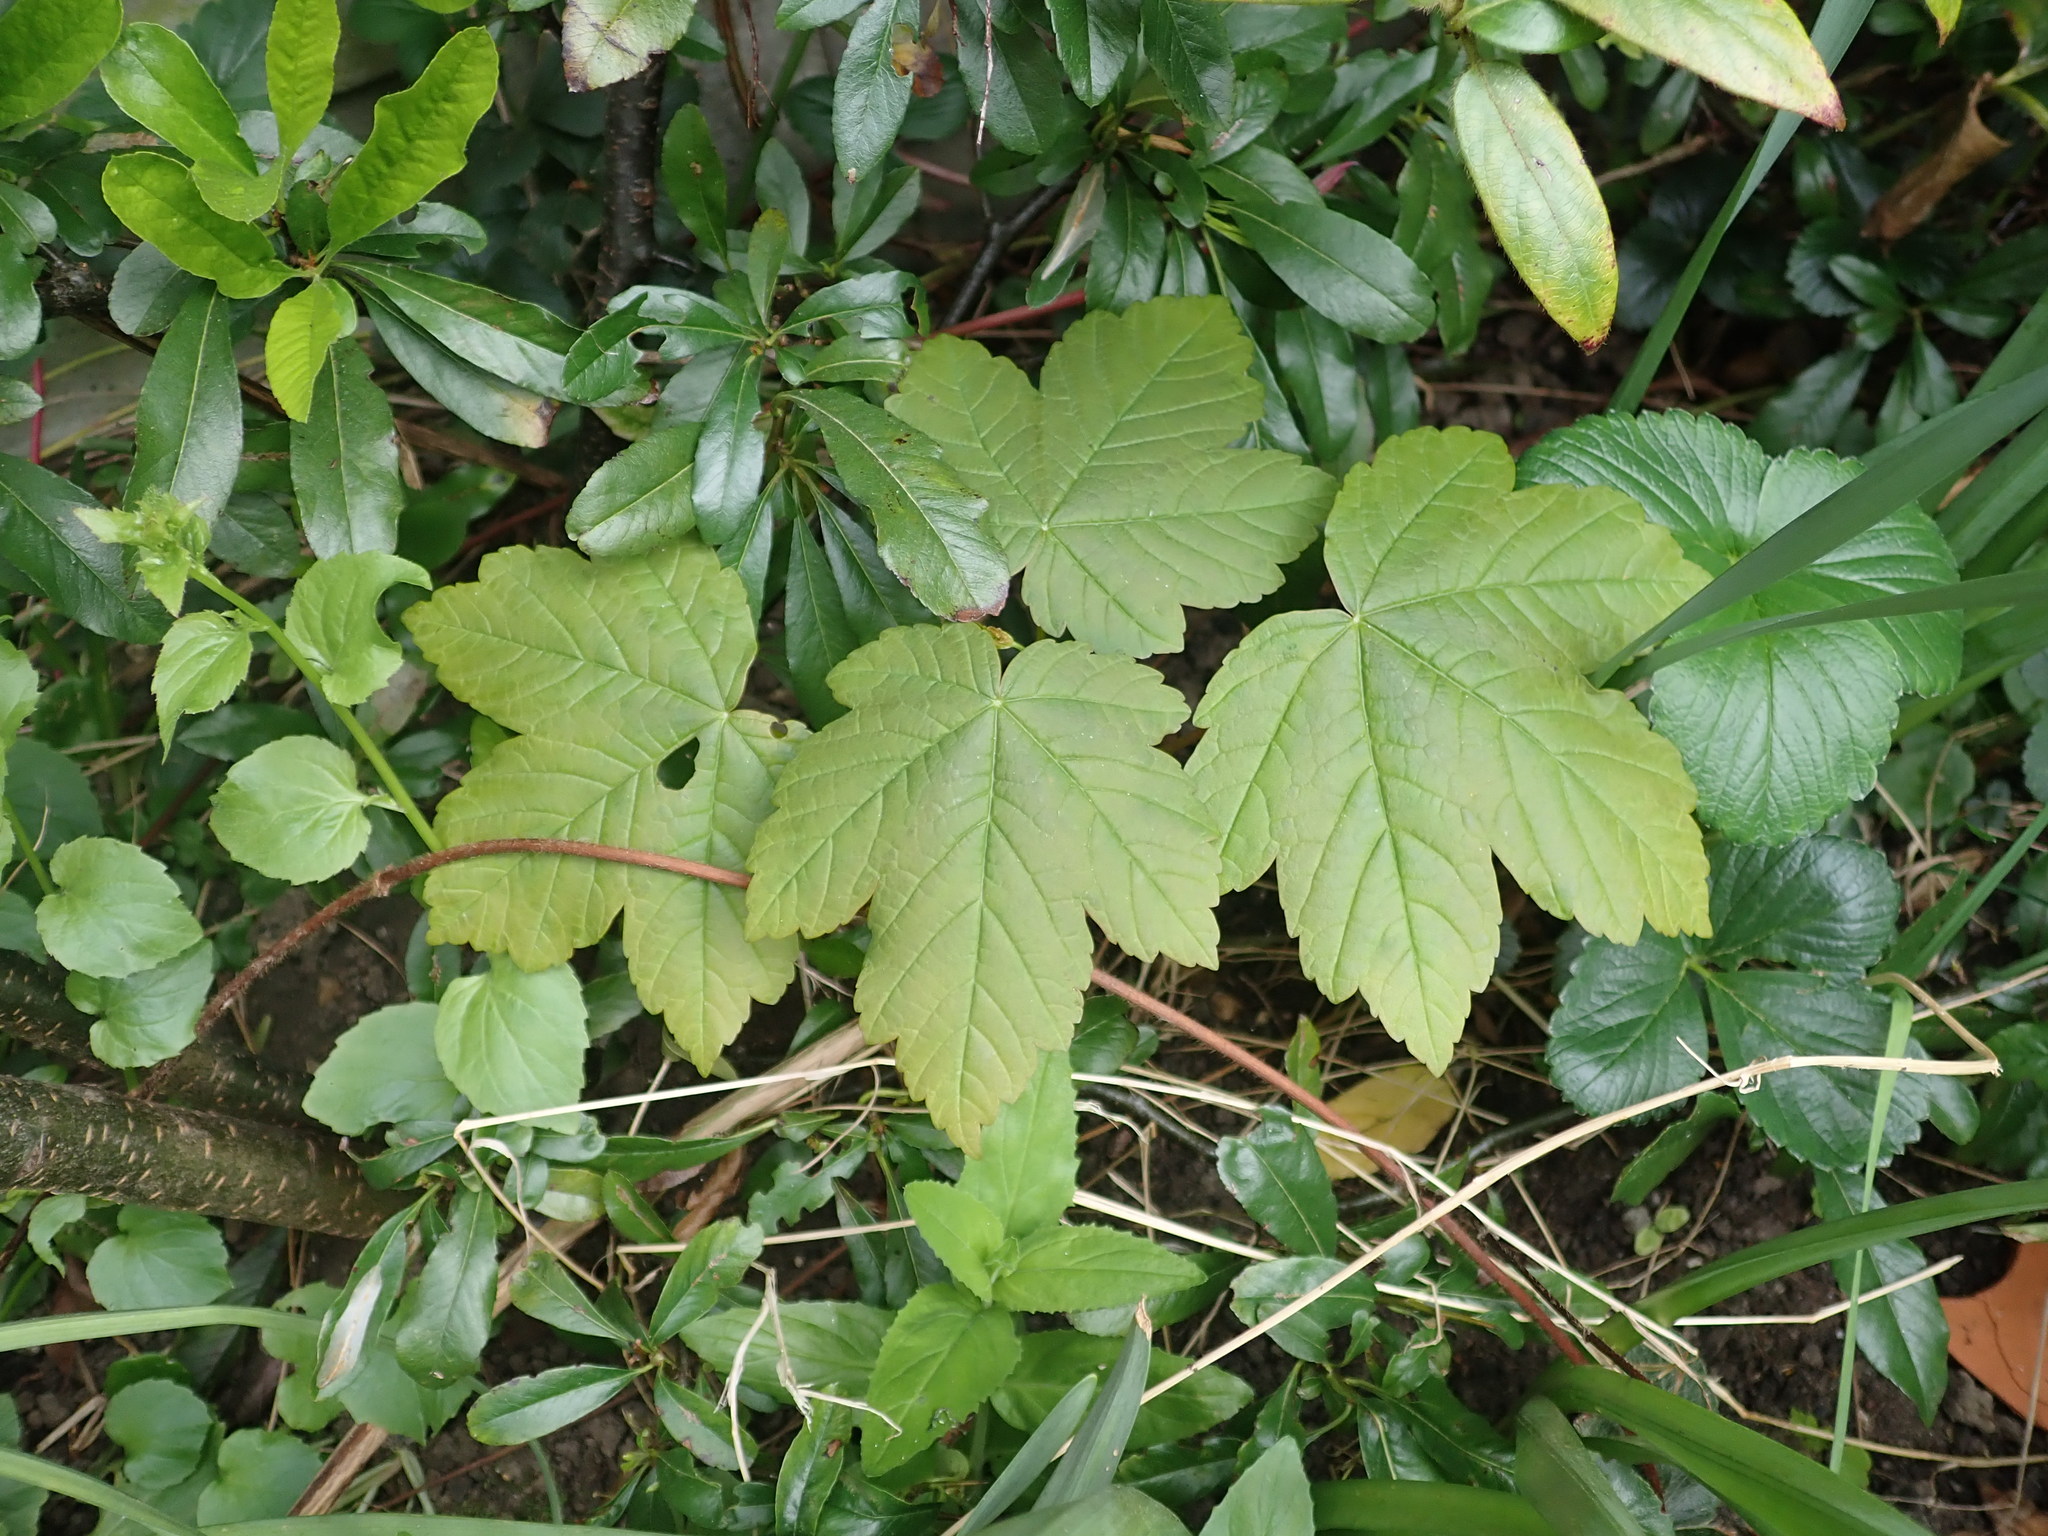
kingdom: Plantae
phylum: Tracheophyta
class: Magnoliopsida
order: Sapindales
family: Sapindaceae
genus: Acer
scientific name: Acer pseudoplatanus
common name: Sycamore
